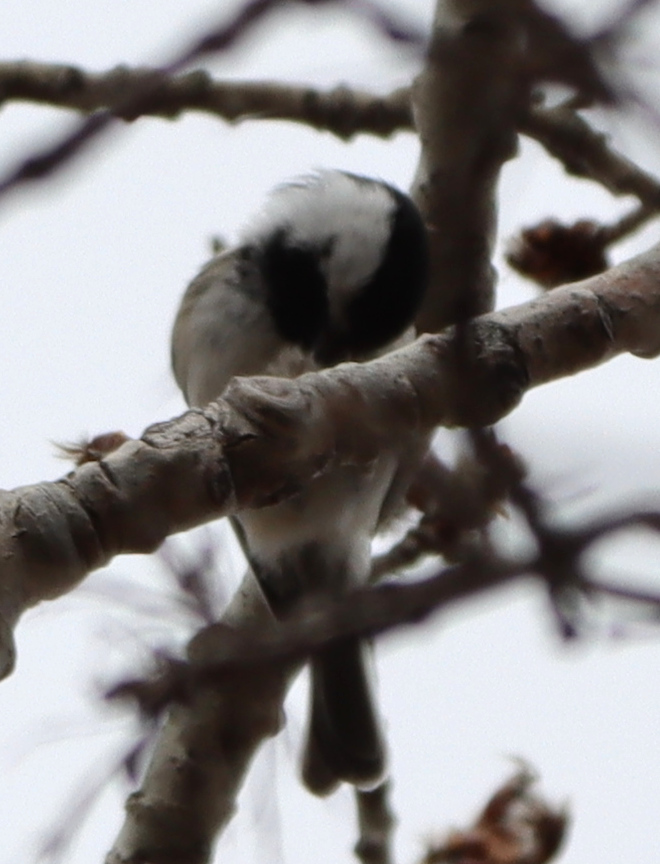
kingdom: Animalia
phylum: Chordata
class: Aves
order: Passeriformes
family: Paridae
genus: Poecile
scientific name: Poecile atricapillus
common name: Black-capped chickadee
